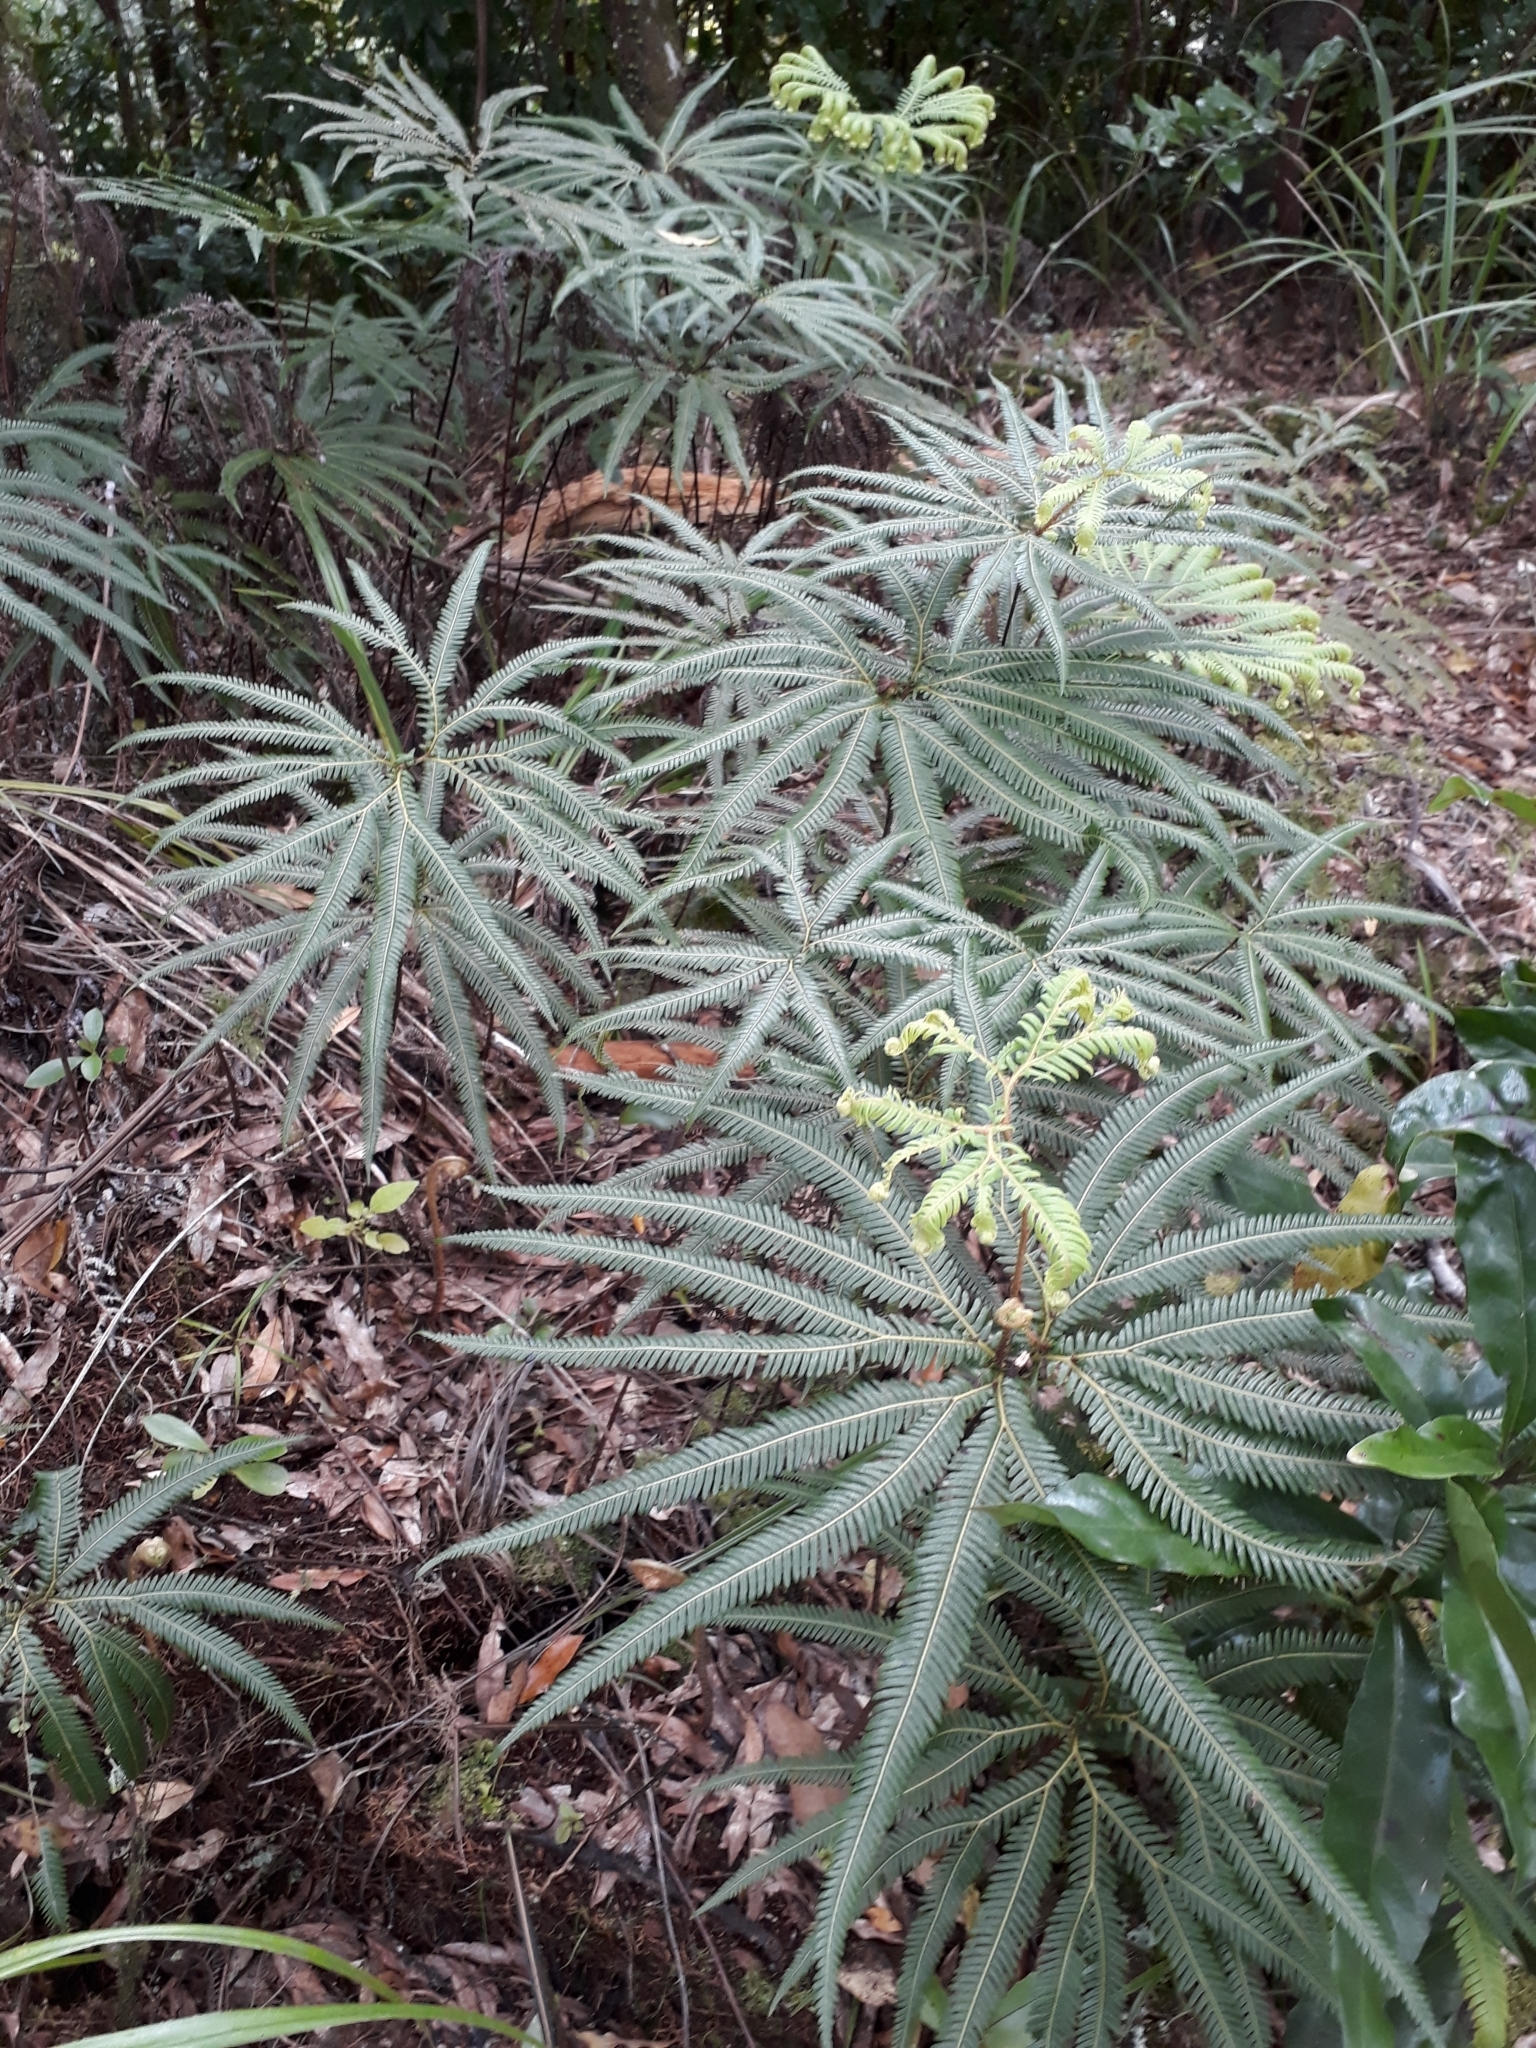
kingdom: Plantae
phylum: Tracheophyta
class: Polypodiopsida
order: Gleicheniales
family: Gleicheniaceae
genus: Sticherus
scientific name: Sticherus cunninghamii
